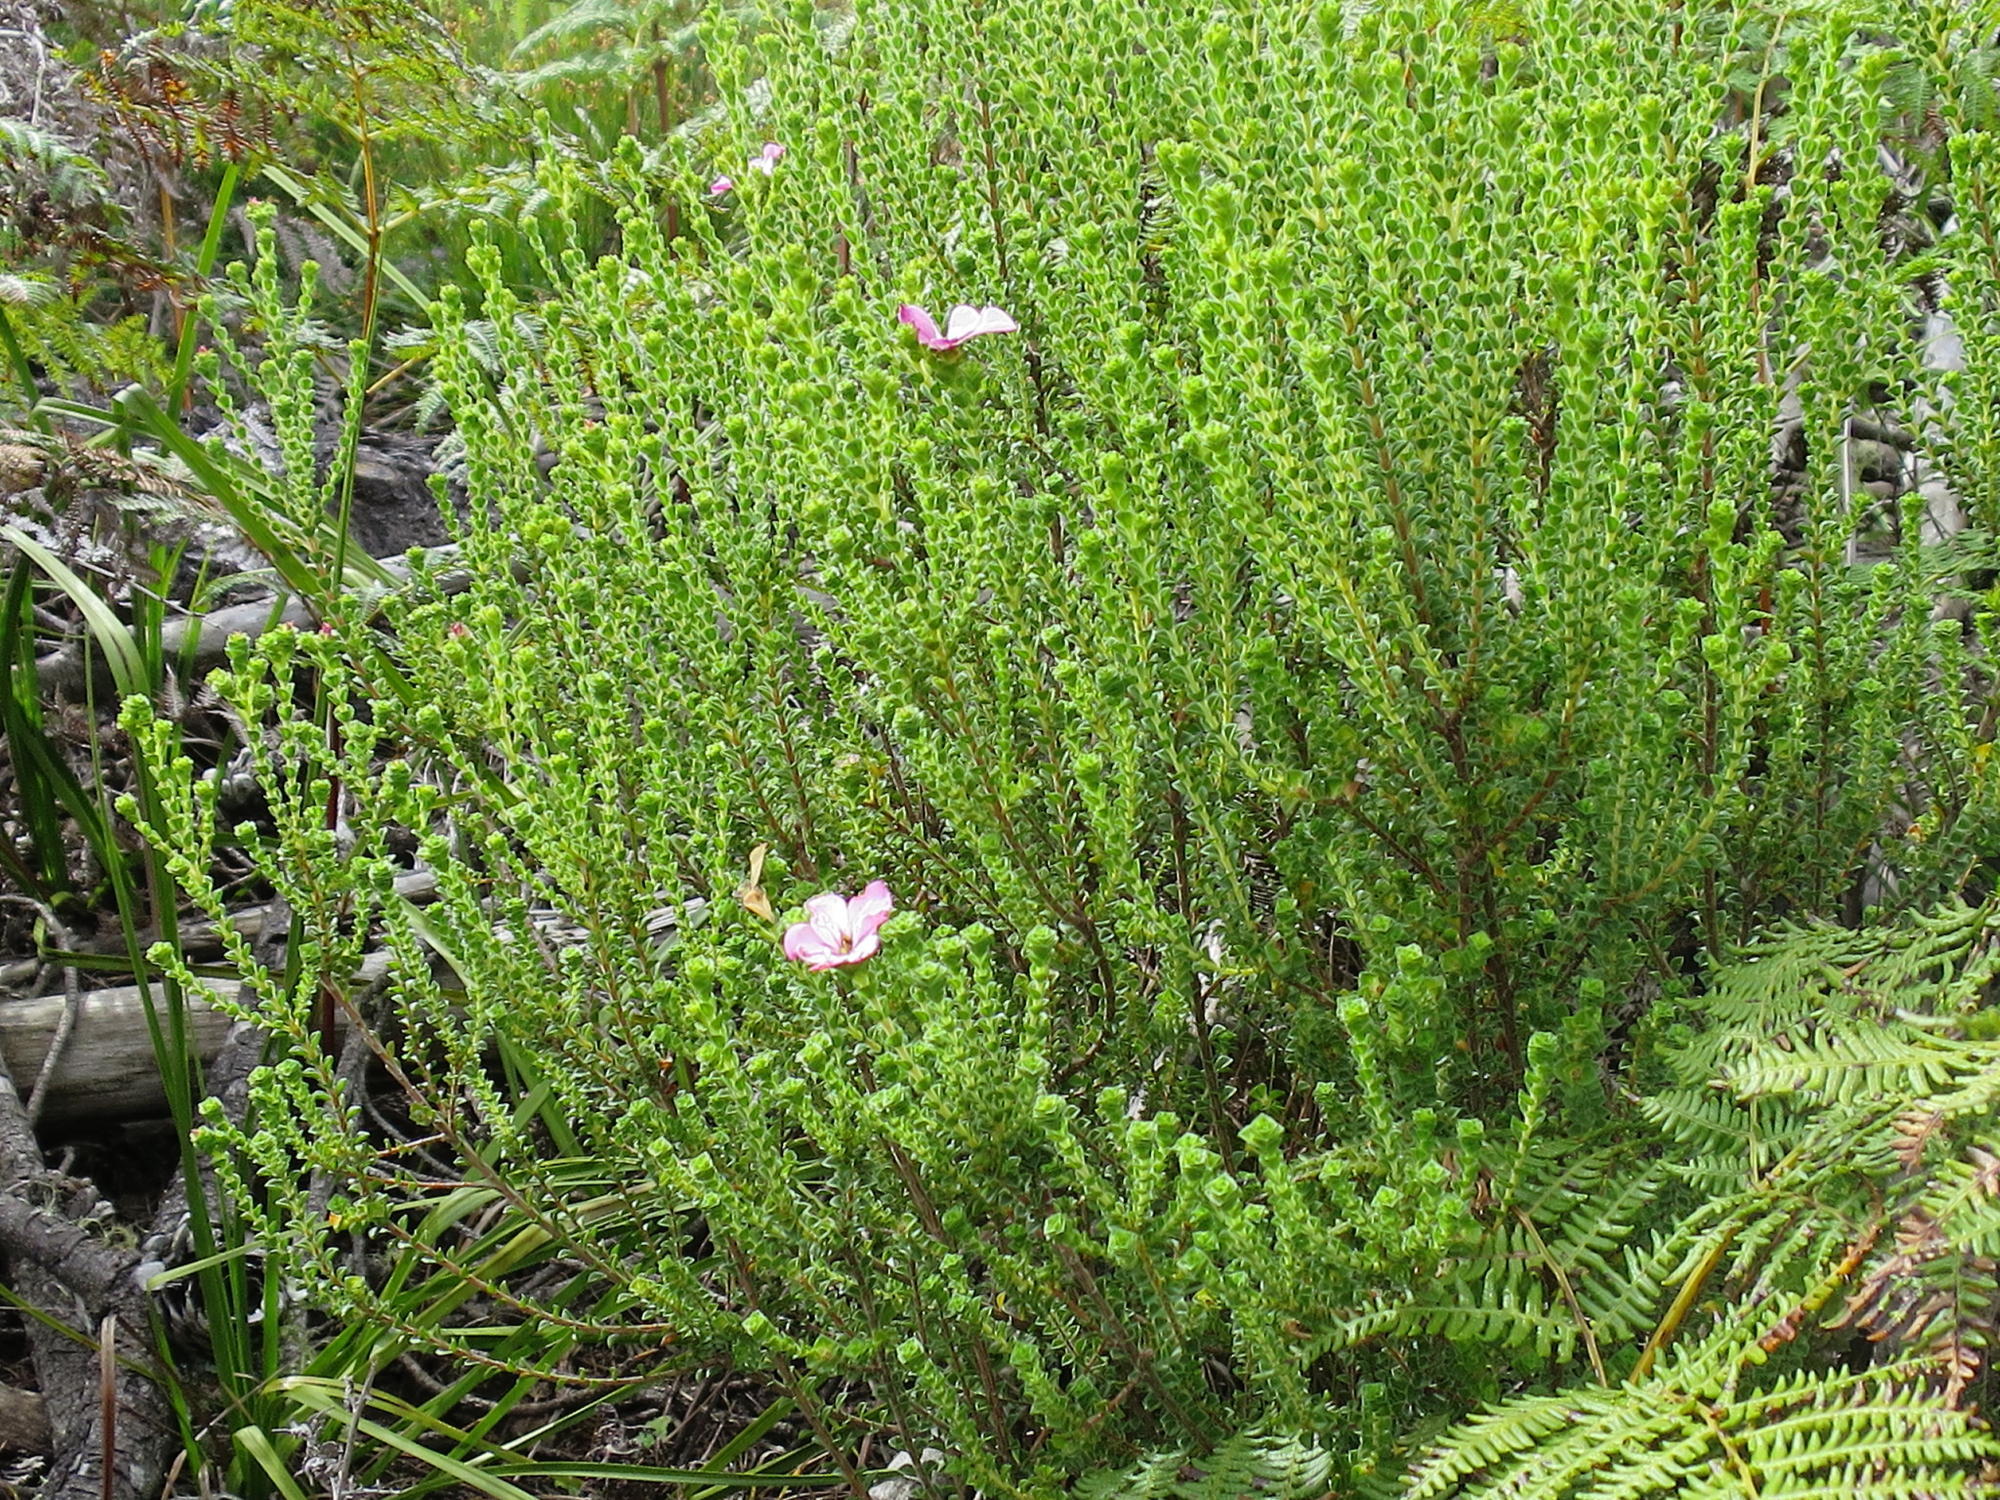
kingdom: Plantae
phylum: Tracheophyta
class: Magnoliopsida
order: Sapindales
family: Rutaceae
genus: Acmadenia
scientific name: Acmadenia tetragona
